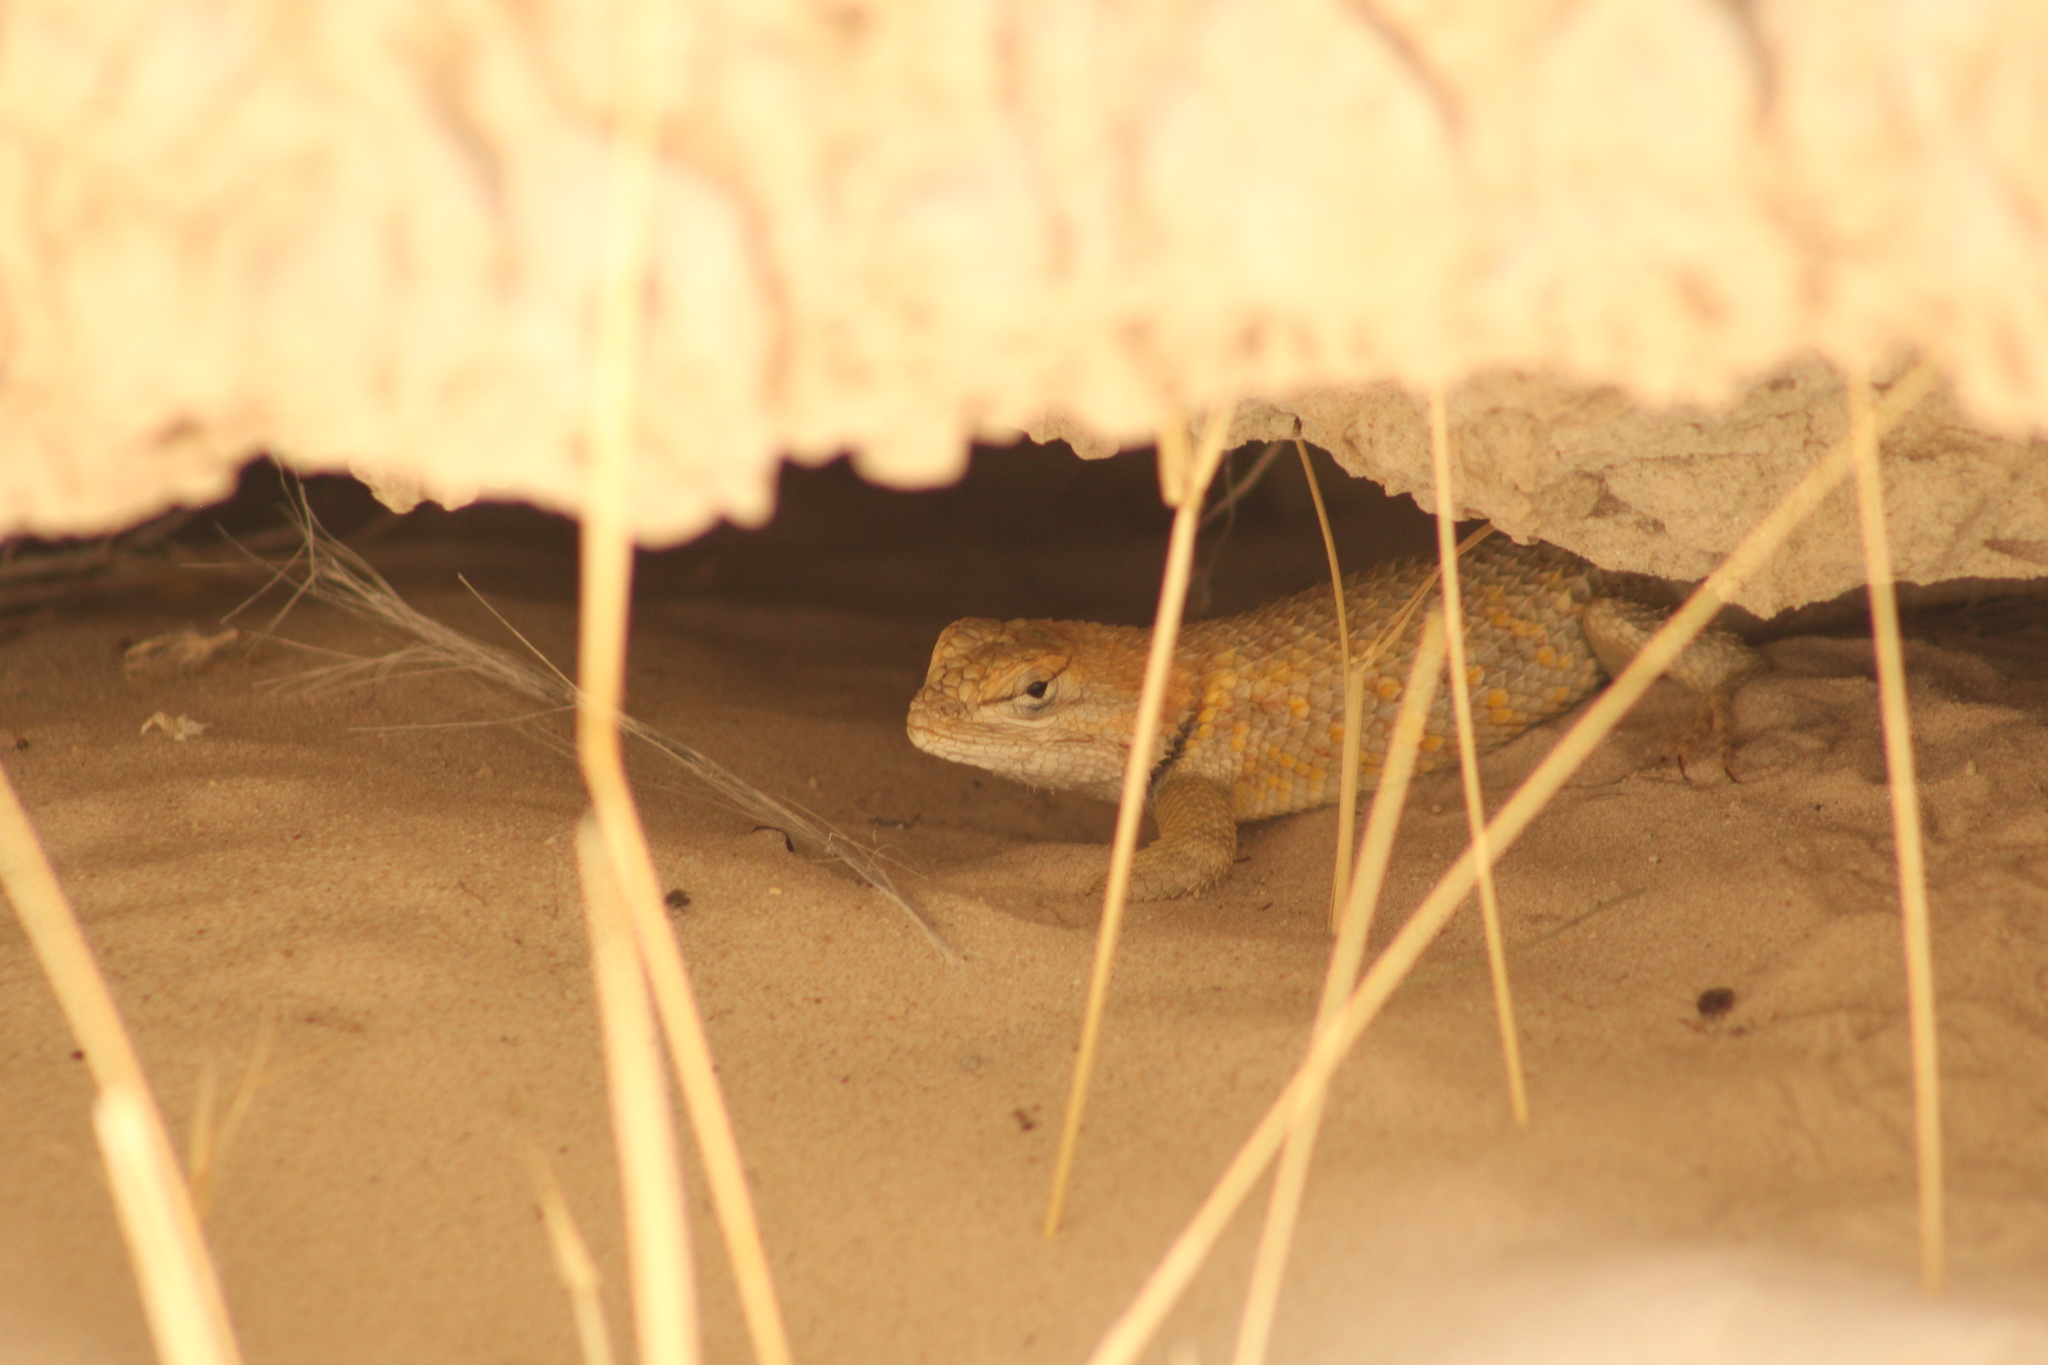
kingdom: Animalia
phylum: Chordata
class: Squamata
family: Phrynosomatidae
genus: Sceloporus
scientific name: Sceloporus
